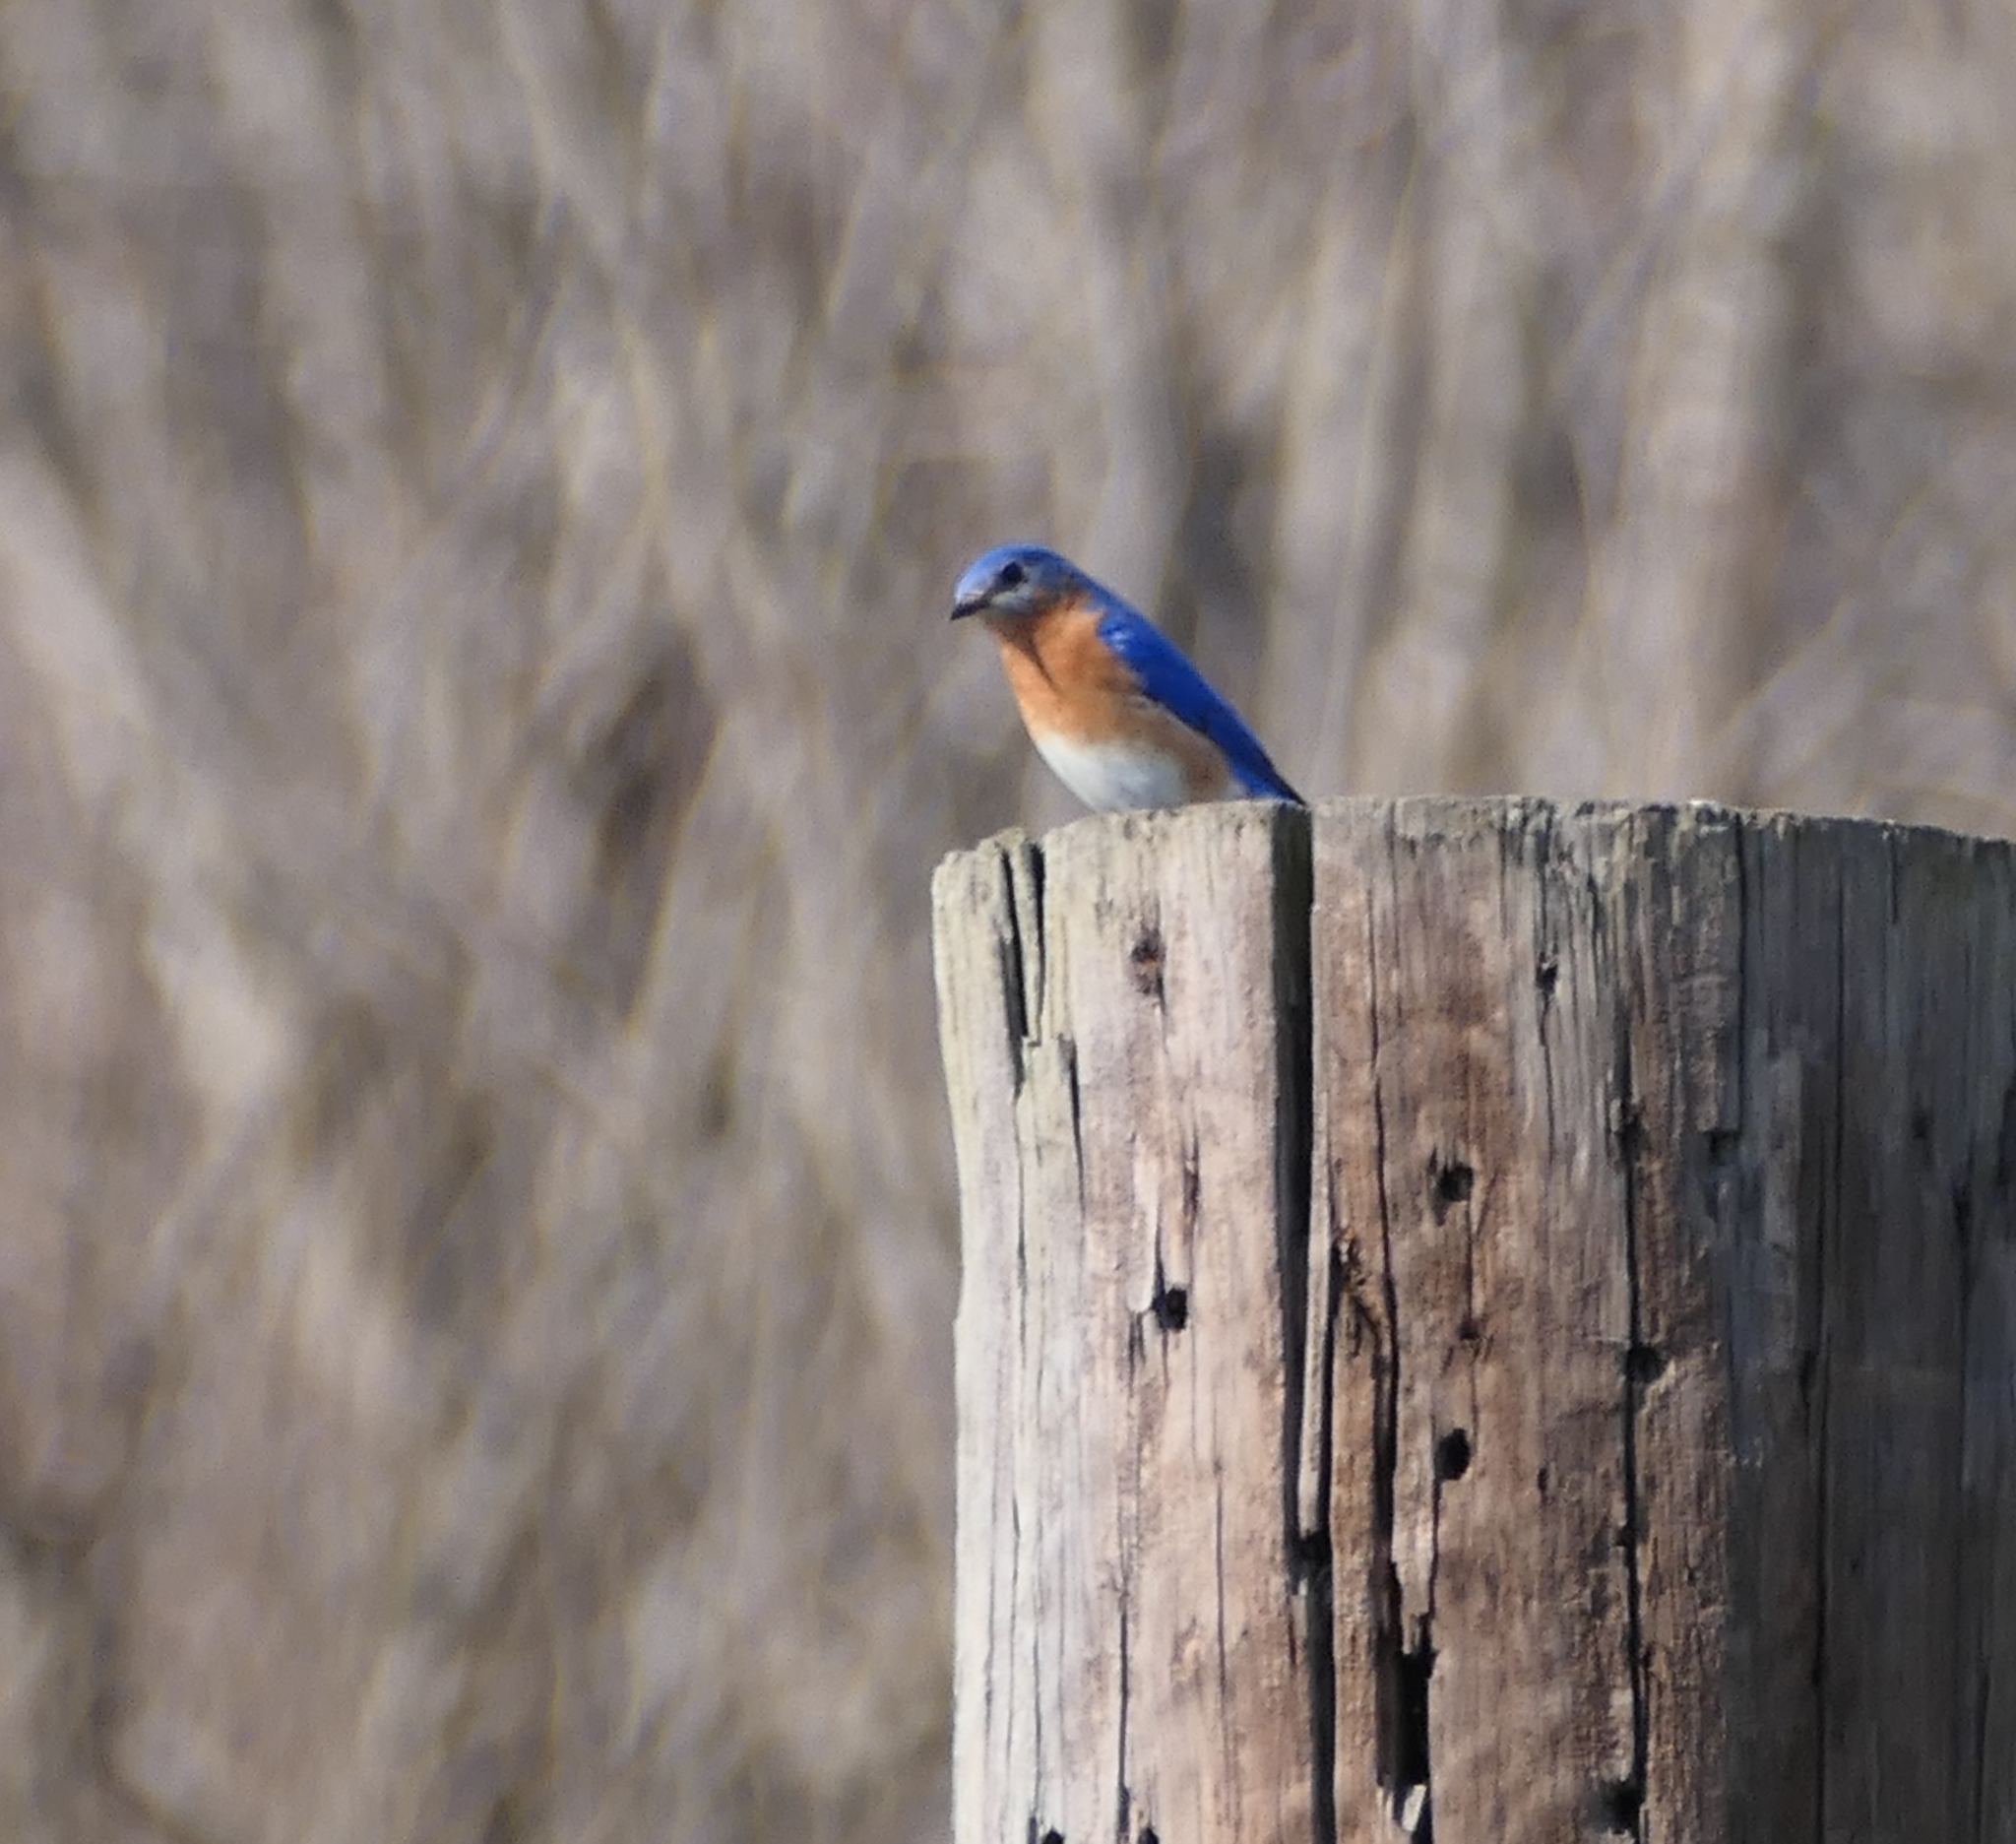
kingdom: Animalia
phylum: Chordata
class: Aves
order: Passeriformes
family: Turdidae
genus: Sialia
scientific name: Sialia sialis
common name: Eastern bluebird
